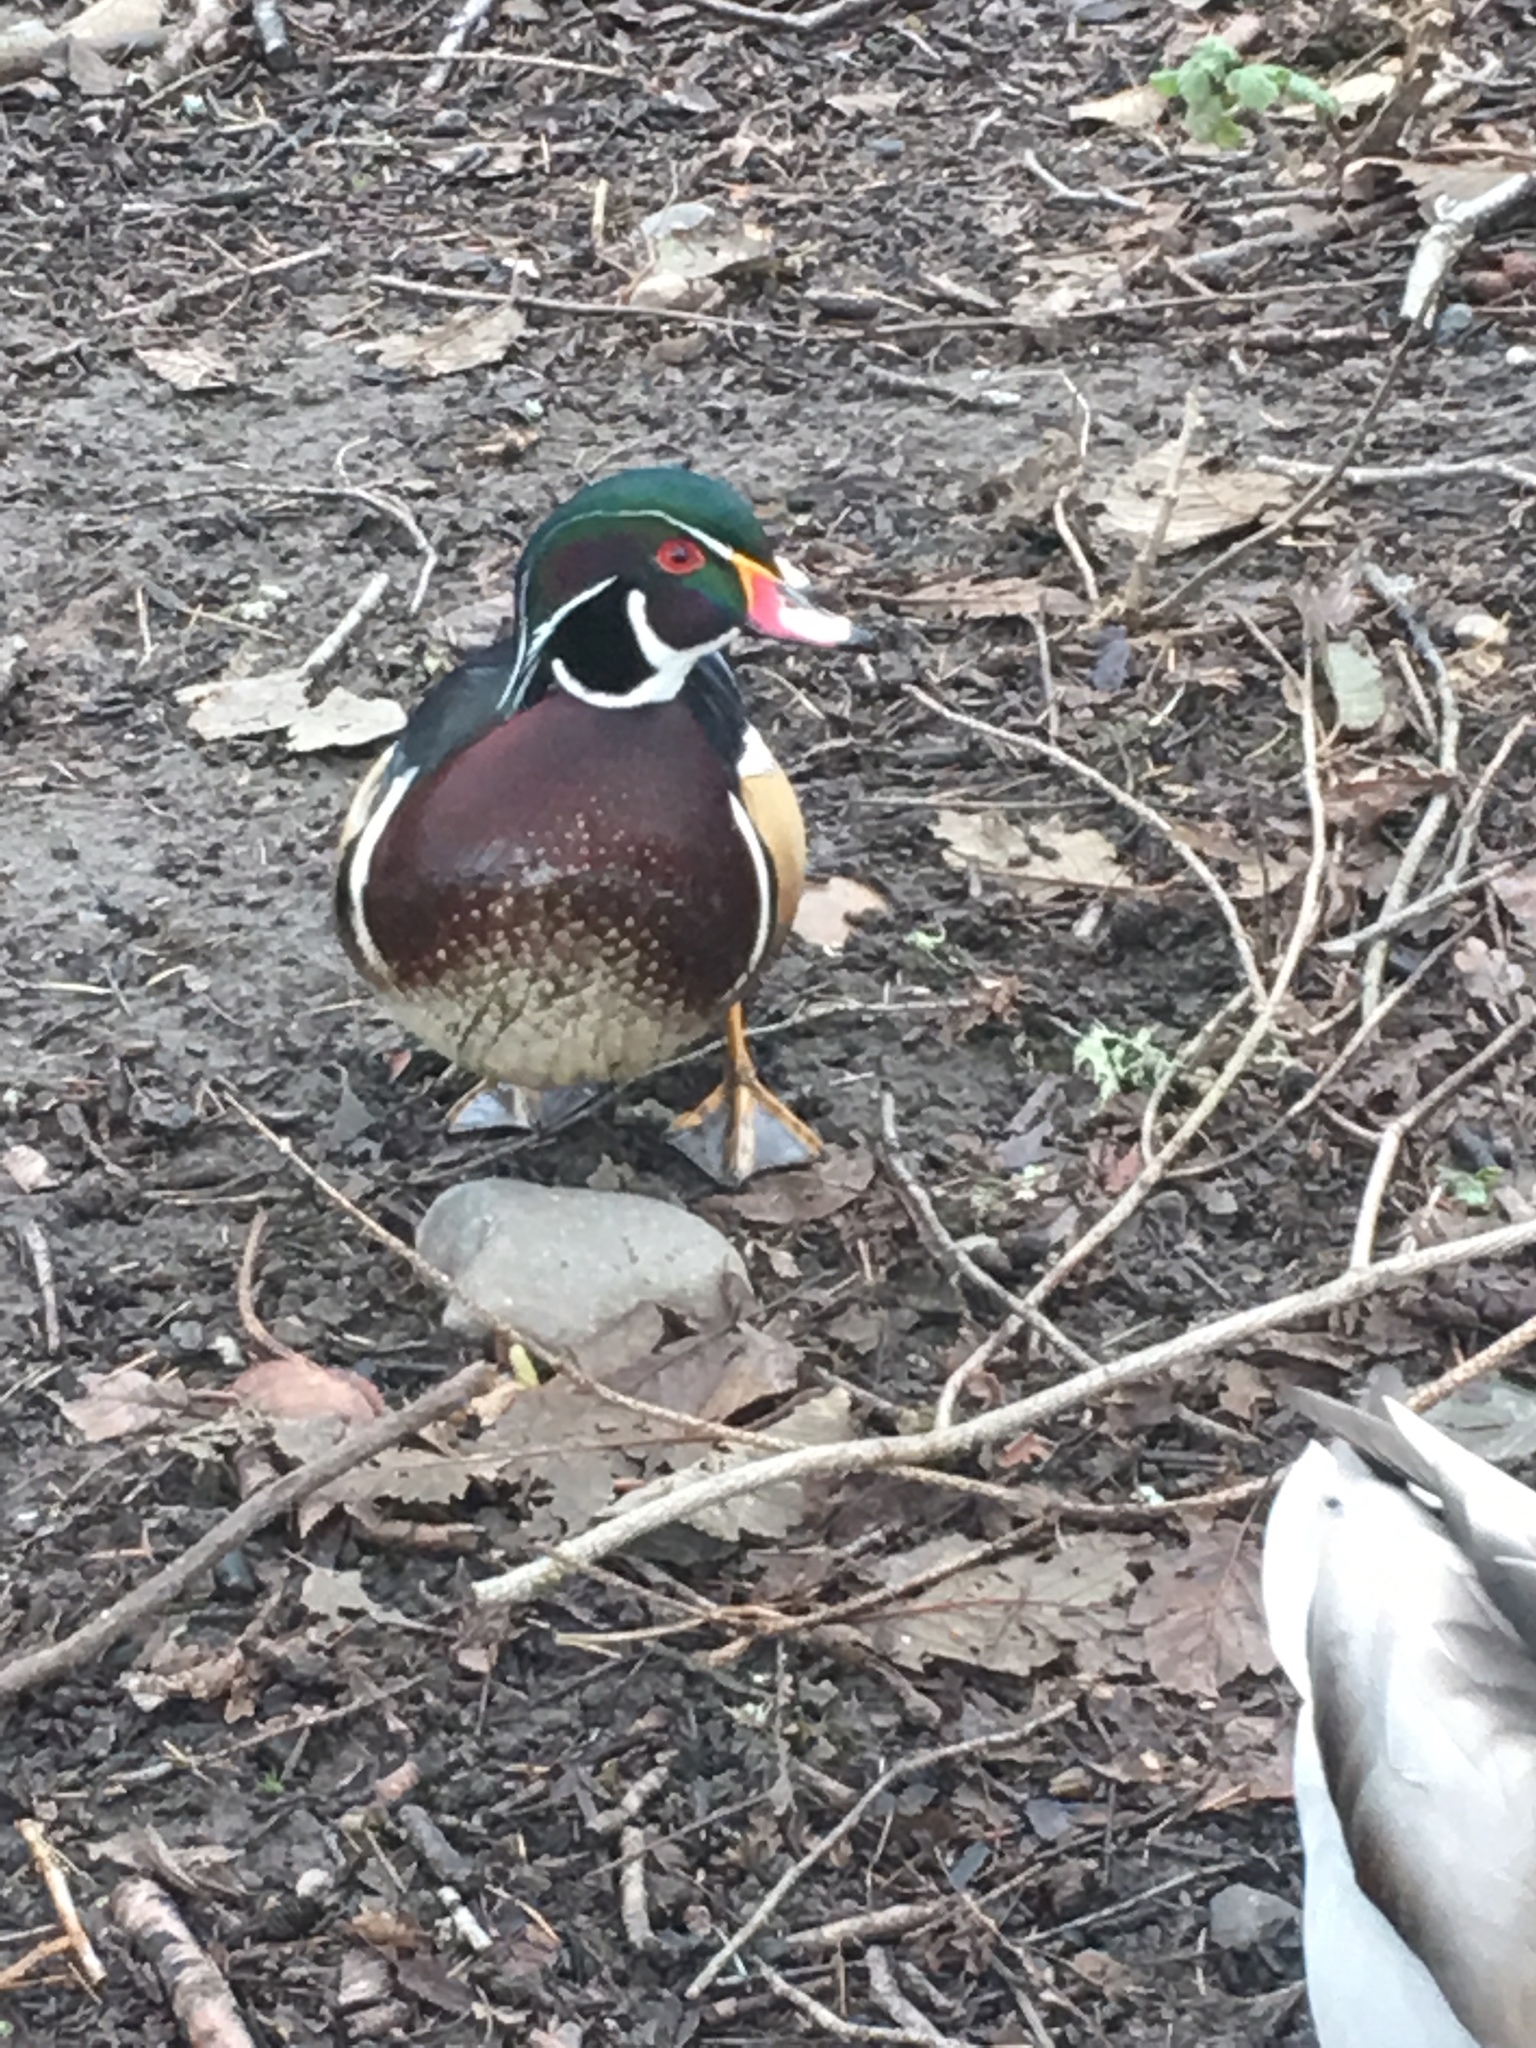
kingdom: Animalia
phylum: Chordata
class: Aves
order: Anseriformes
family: Anatidae
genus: Aix
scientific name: Aix sponsa
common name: Wood duck
